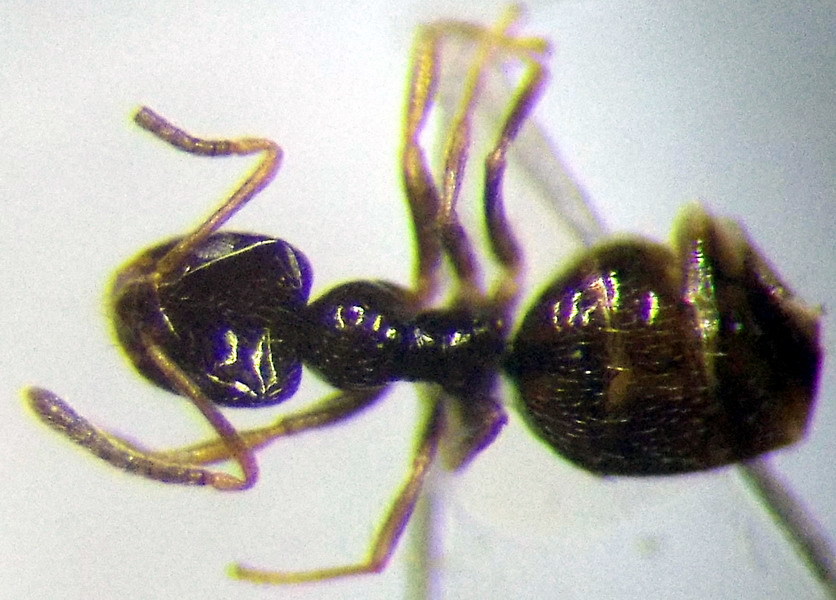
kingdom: Animalia
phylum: Arthropoda
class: Insecta
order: Hymenoptera
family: Formicidae
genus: Plagiolepis
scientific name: Plagiolepis pallescens
